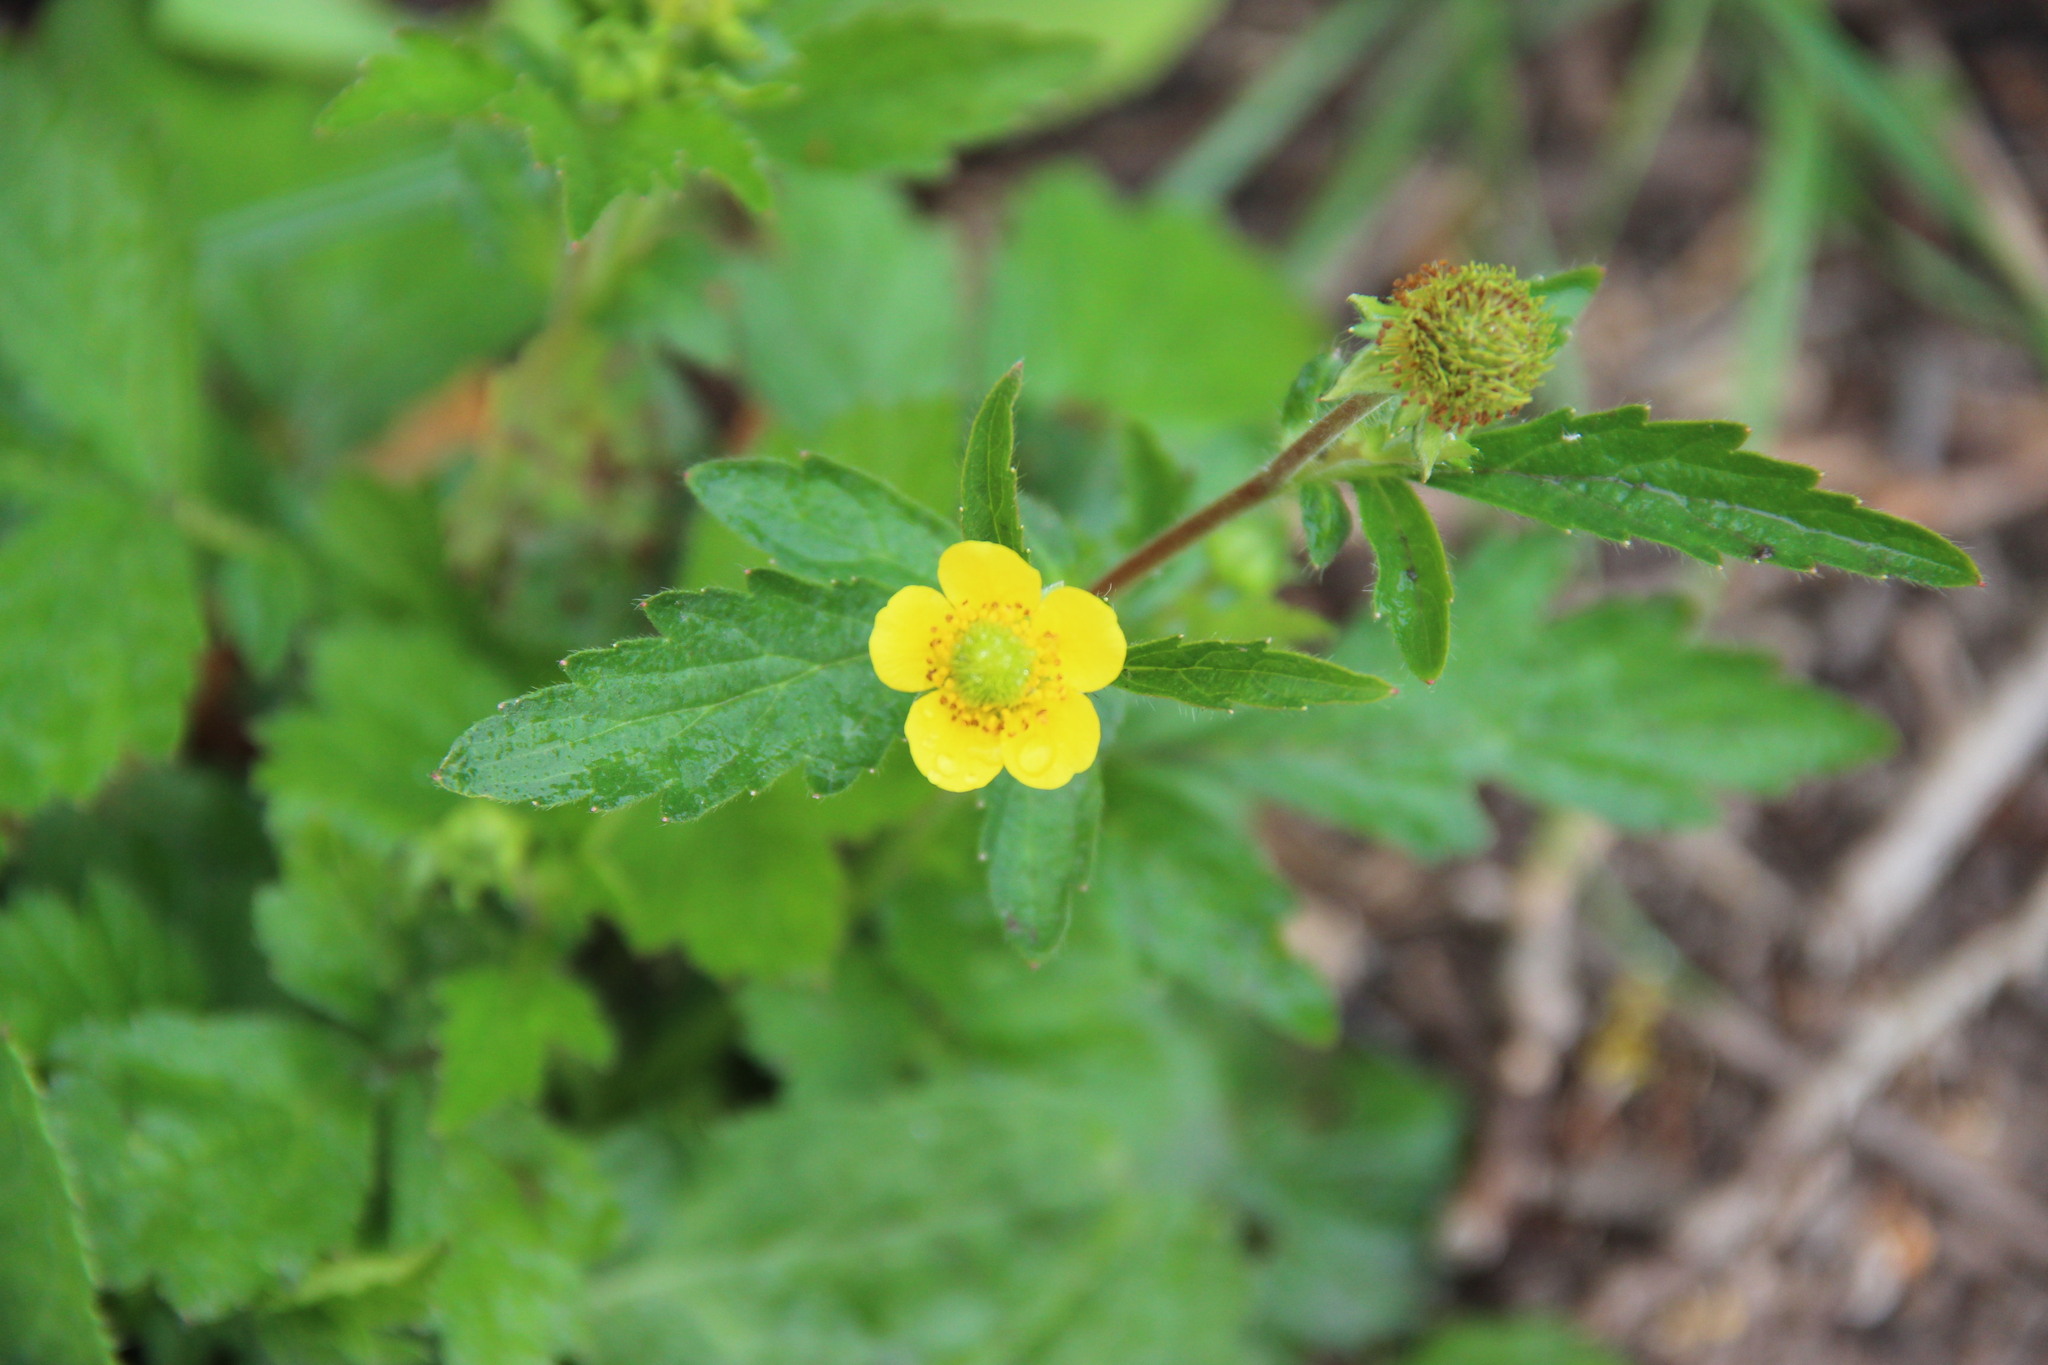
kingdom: Plantae
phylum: Tracheophyta
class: Magnoliopsida
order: Rosales
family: Rosaceae
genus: Geum
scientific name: Geum aleppicum
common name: Yellow avens
